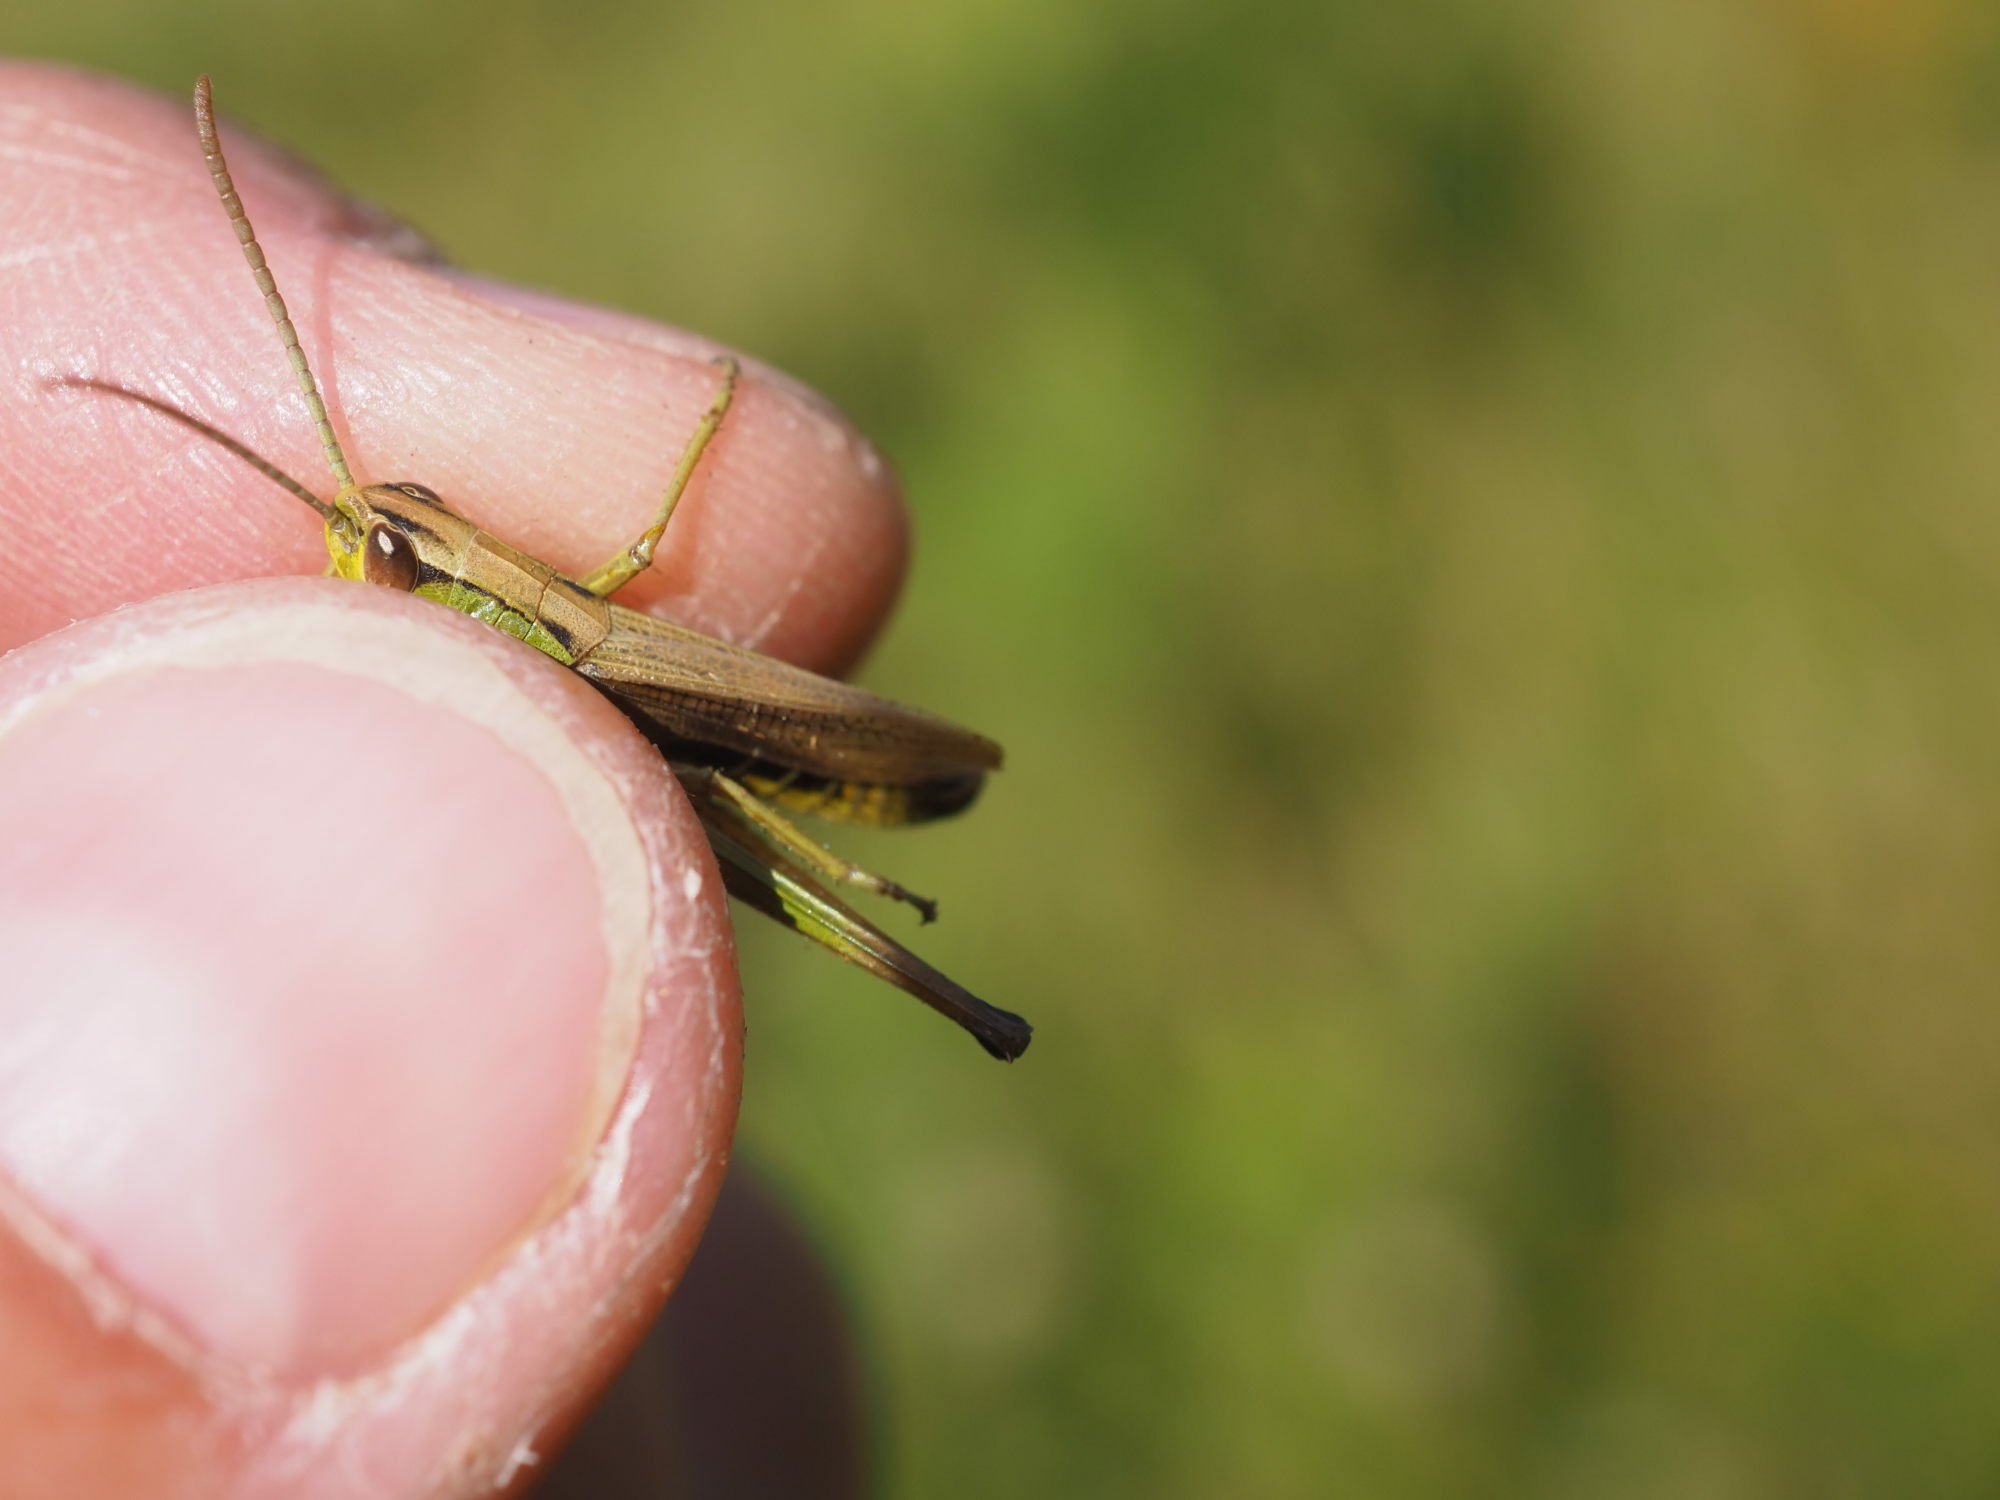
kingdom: Animalia
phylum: Arthropoda
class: Insecta
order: Orthoptera
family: Acrididae
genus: Pseudochorthippus
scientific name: Pseudochorthippus parallelus
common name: Meadow grasshopper
